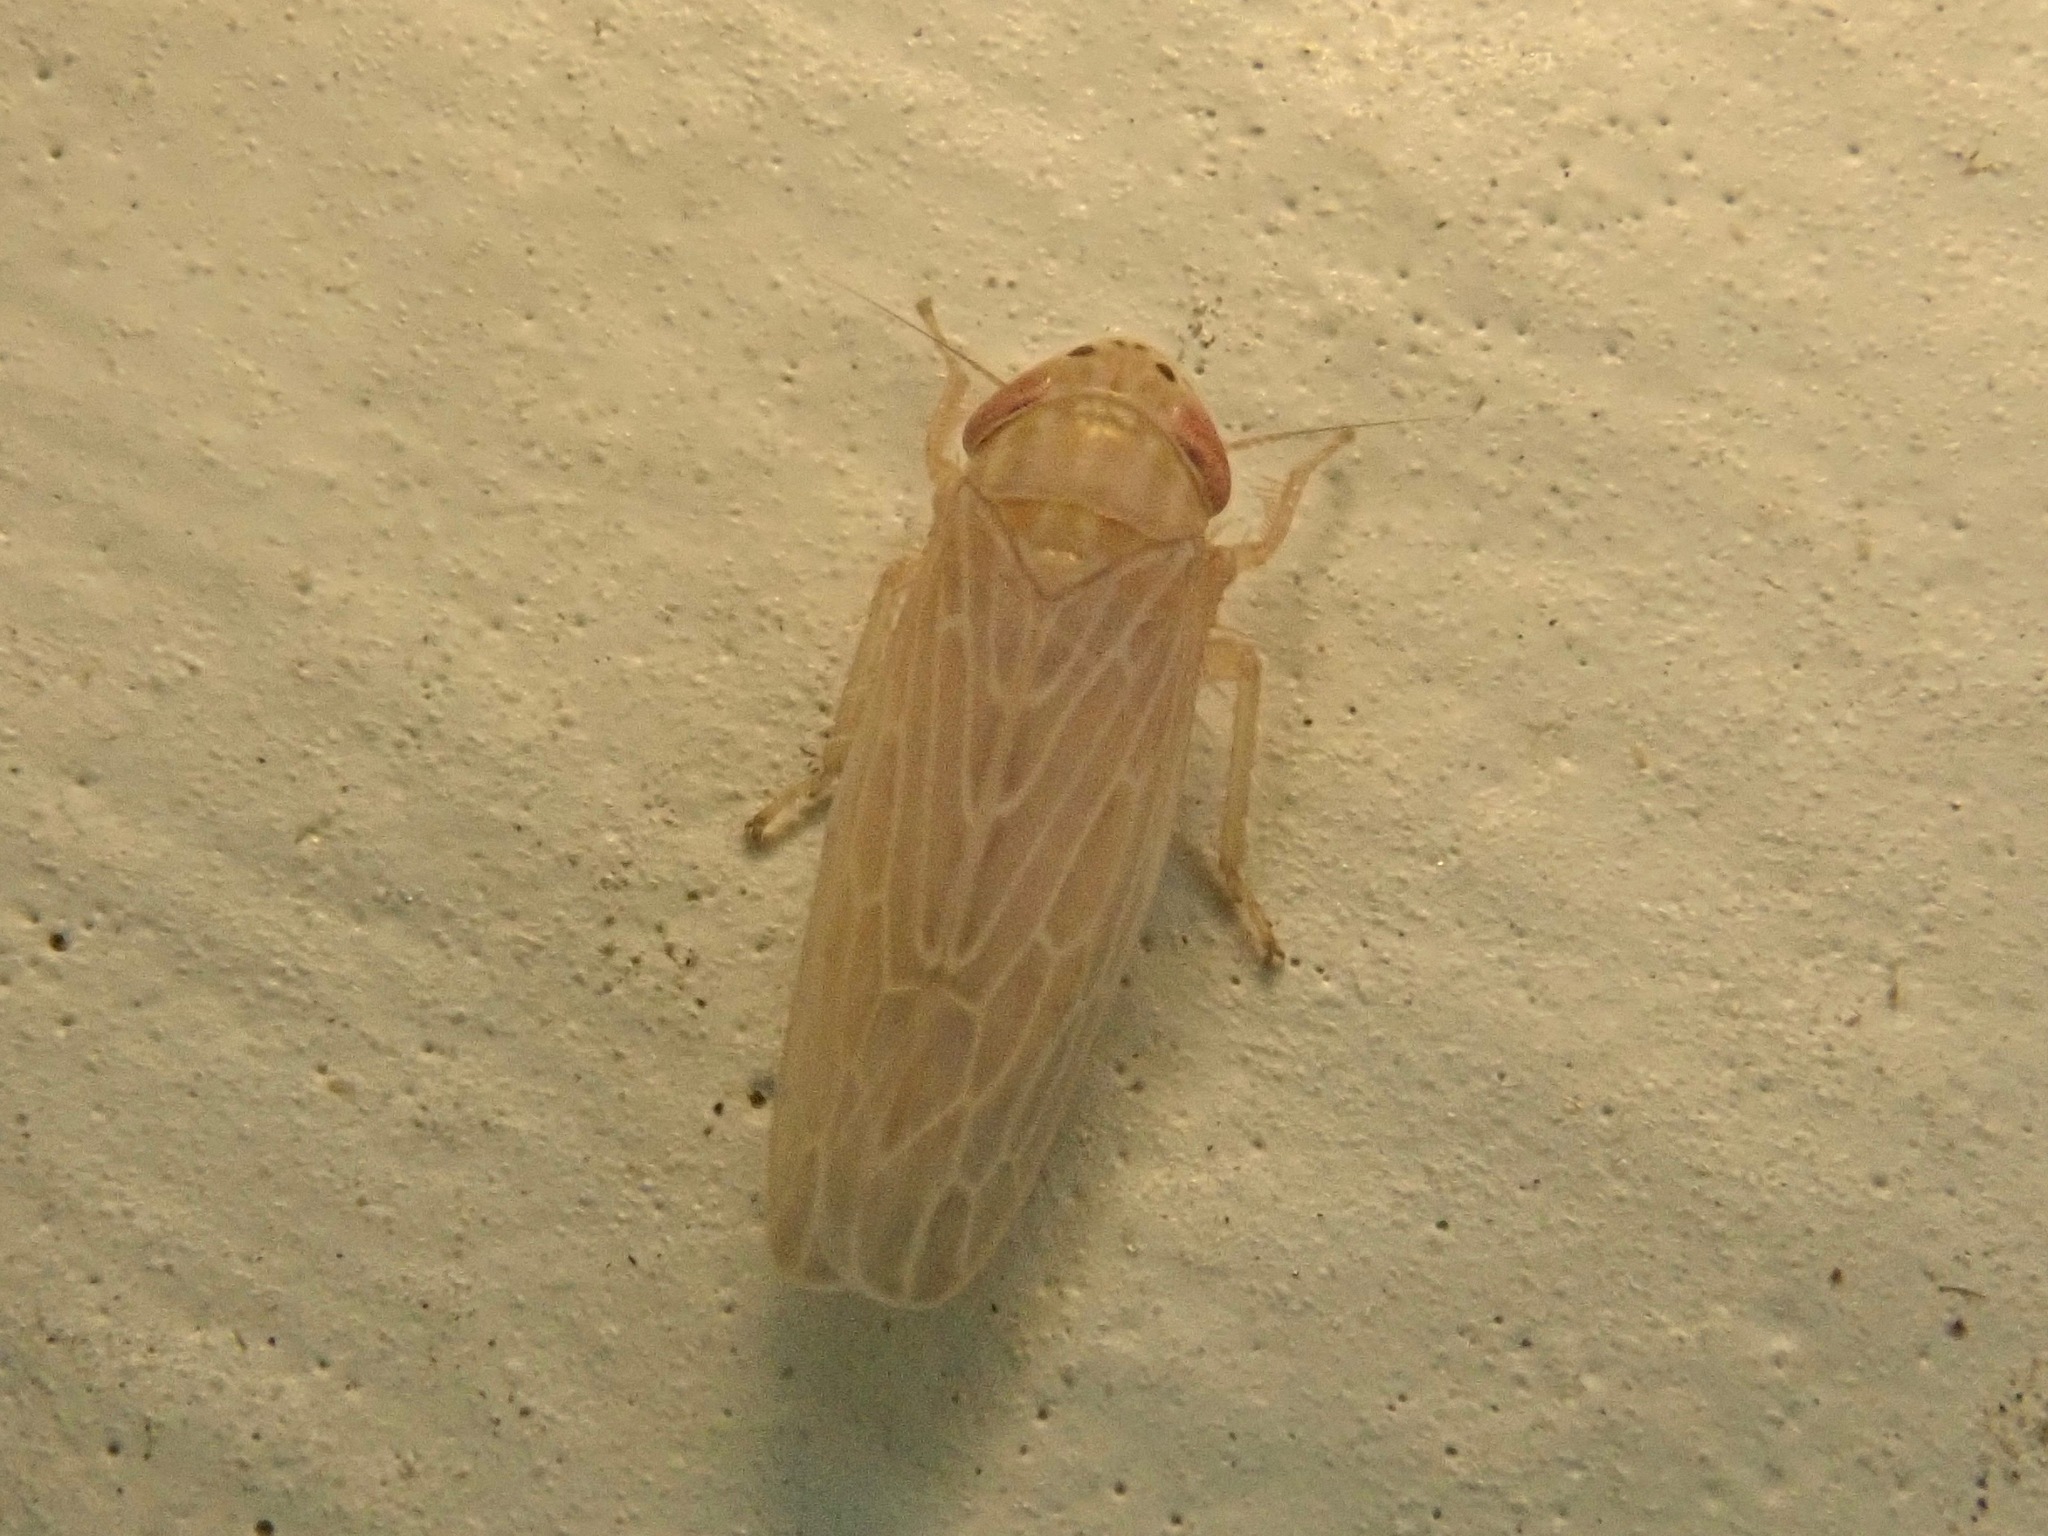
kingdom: Animalia
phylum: Arthropoda
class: Insecta
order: Hemiptera
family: Cicadellidae
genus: Graminella
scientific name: Graminella sonora
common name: Lesser lawn leafhopper
